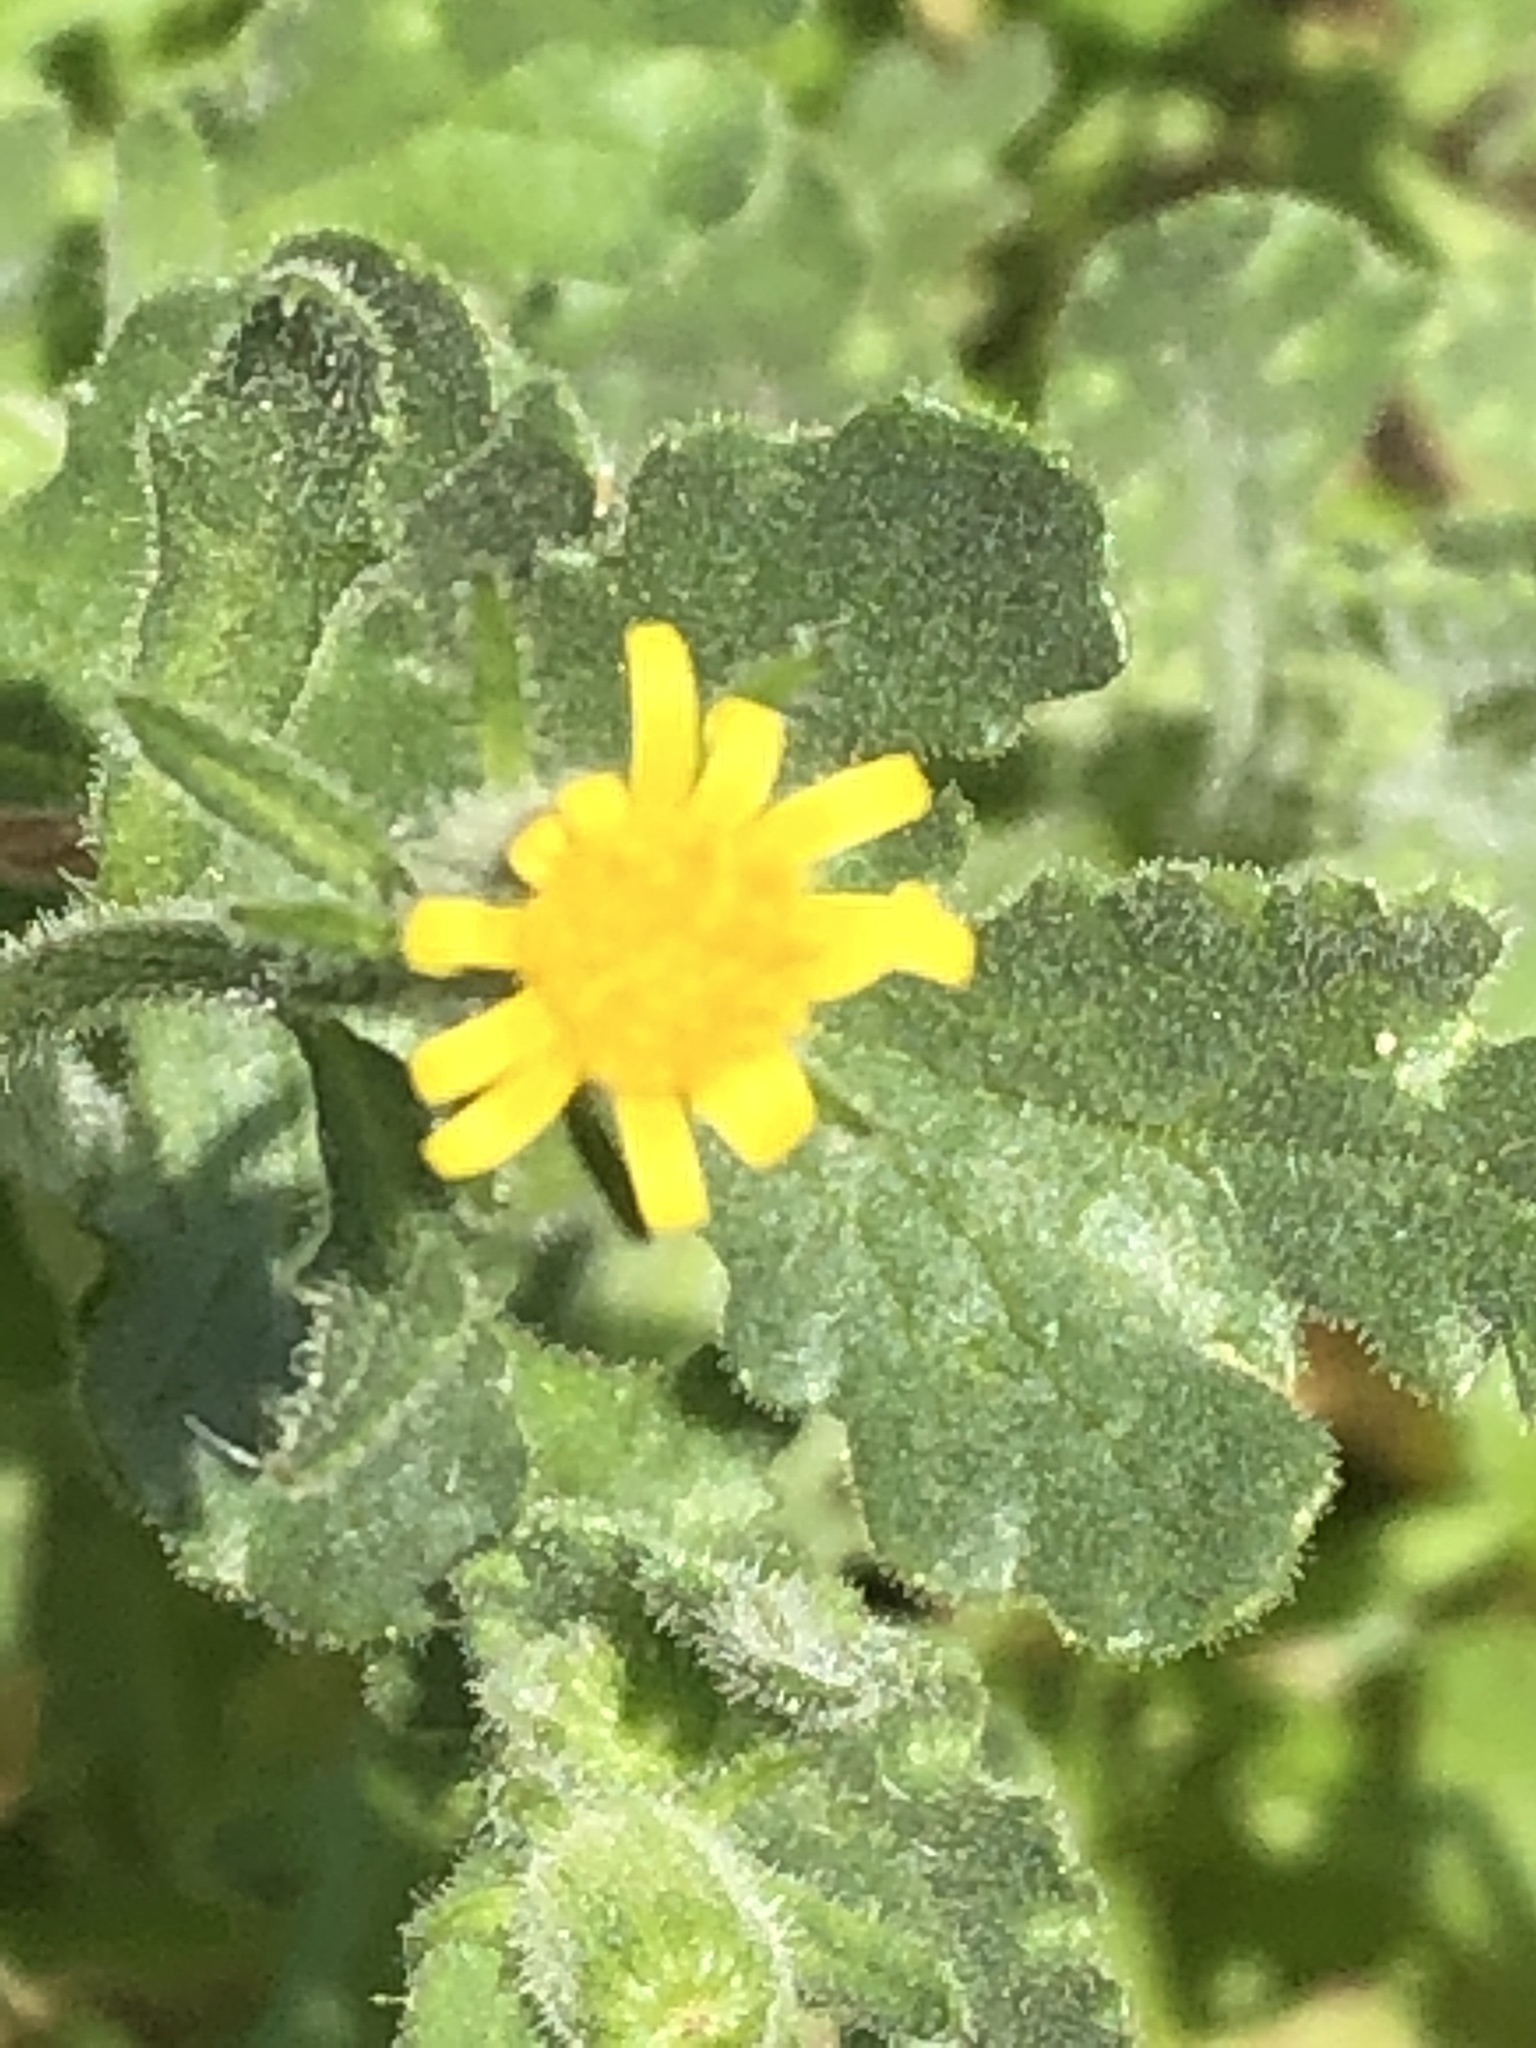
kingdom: Plantae
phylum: Tracheophyta
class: Magnoliopsida
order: Asterales
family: Asteraceae
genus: Senecio
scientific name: Senecio viscosus
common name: Sticky groundsel
